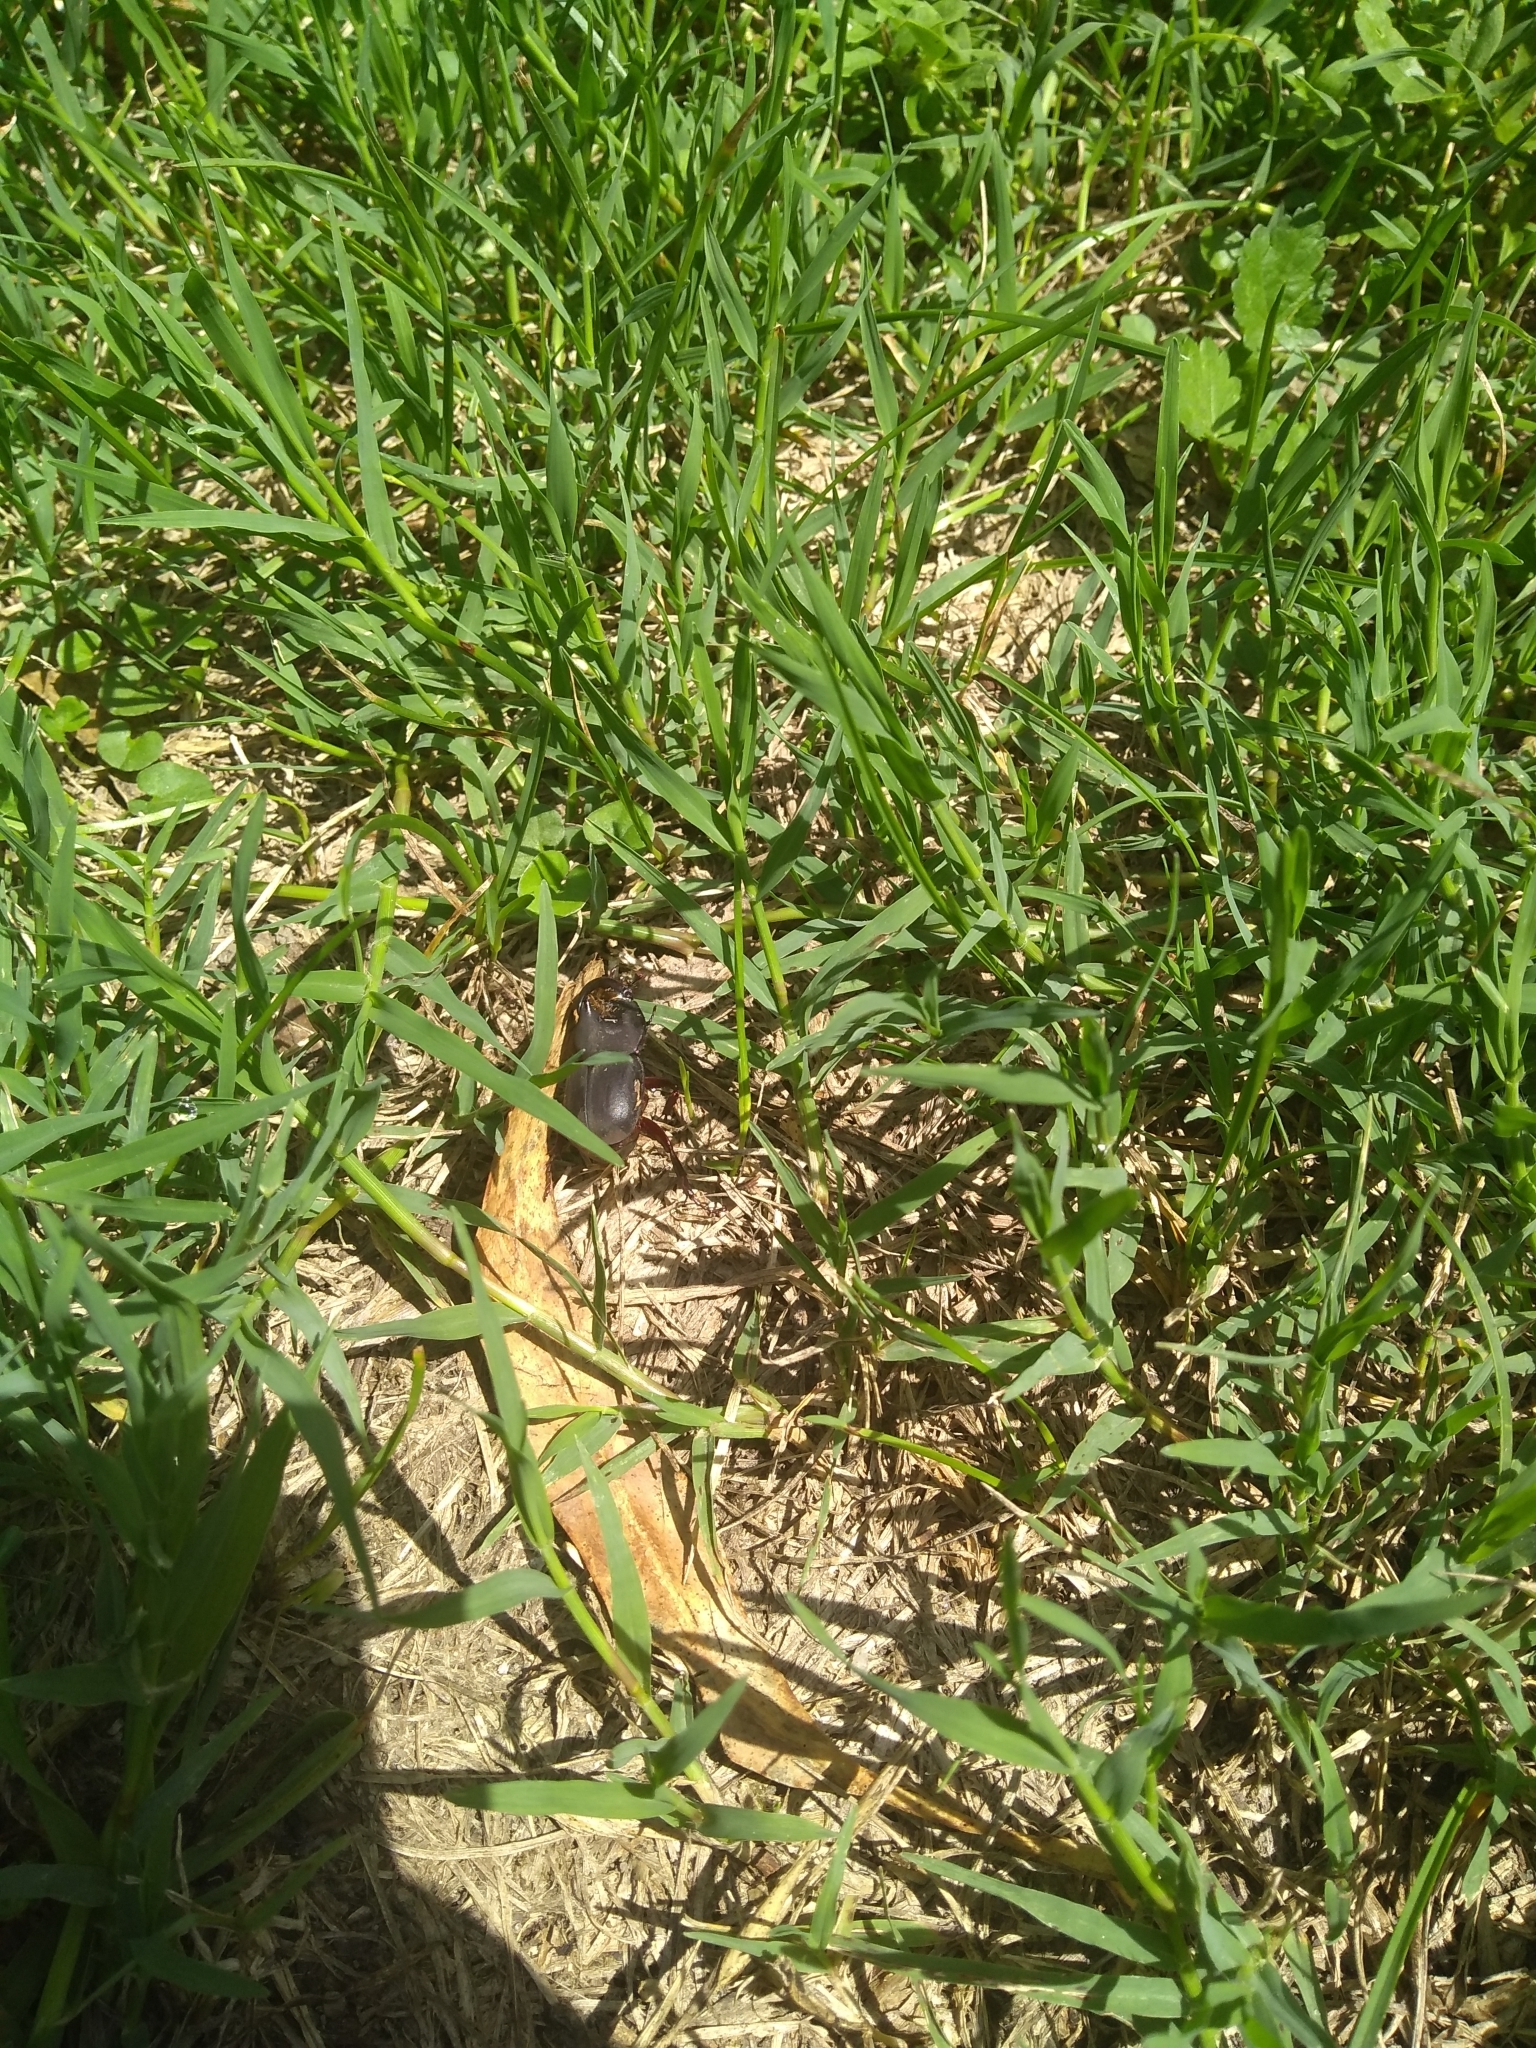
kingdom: Animalia
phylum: Arthropoda
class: Insecta
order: Coleoptera
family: Scarabaeidae
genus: Diloboderus
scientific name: Diloboderus abderus
